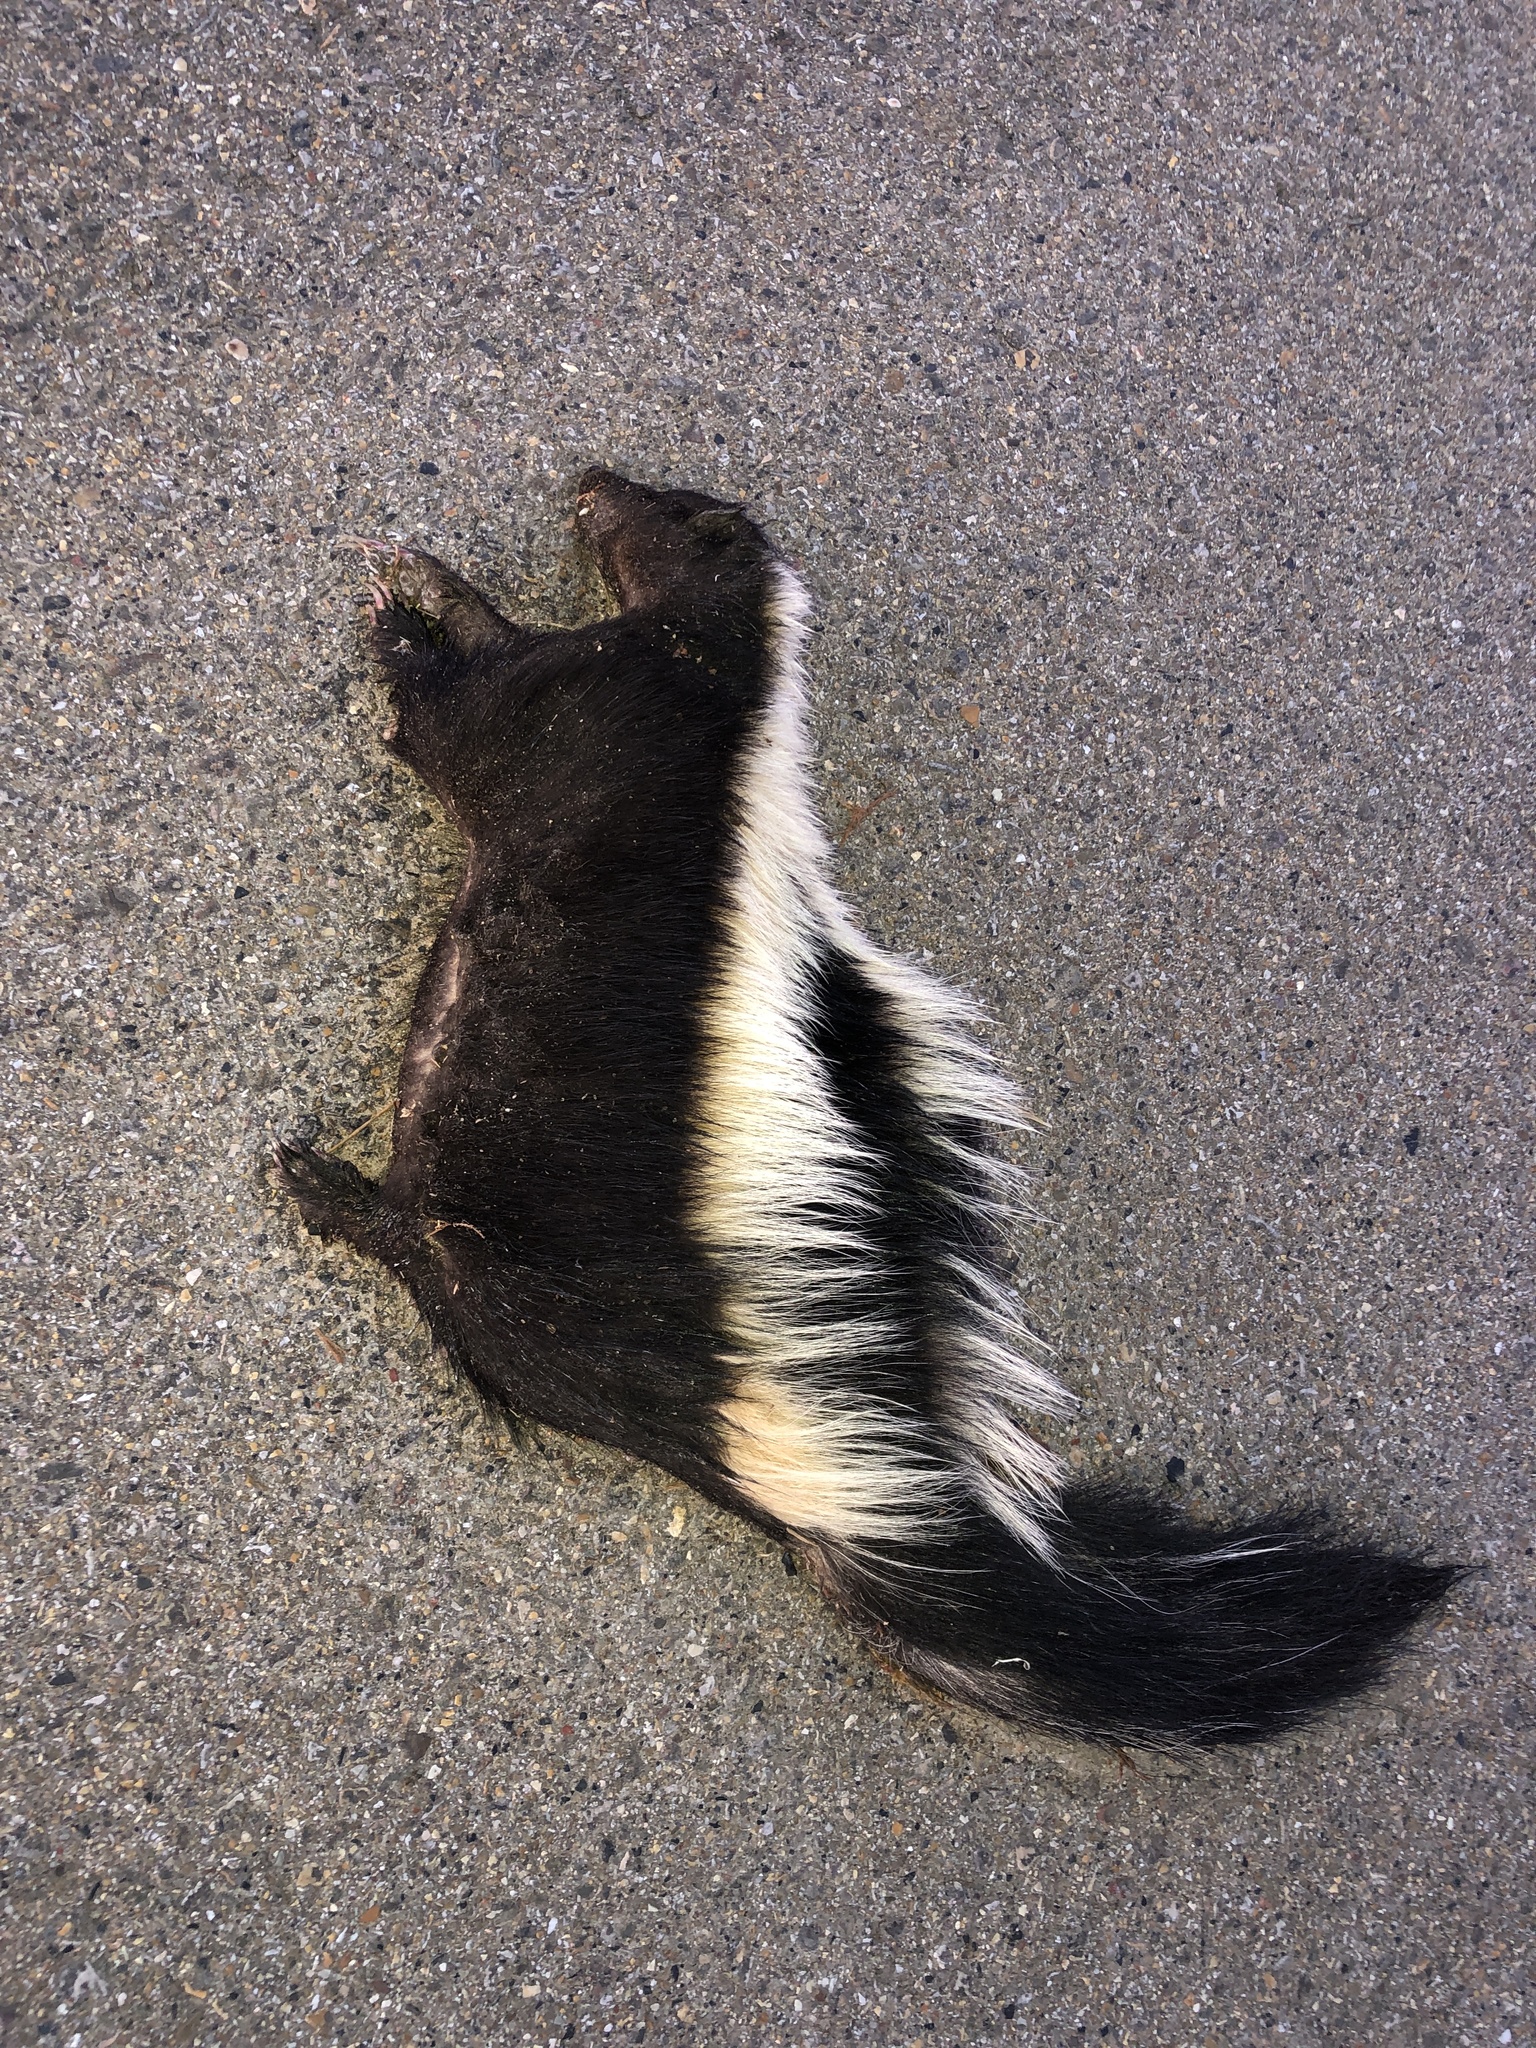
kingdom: Animalia
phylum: Chordata
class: Mammalia
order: Carnivora
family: Mephitidae
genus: Mephitis
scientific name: Mephitis mephitis
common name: Striped skunk
